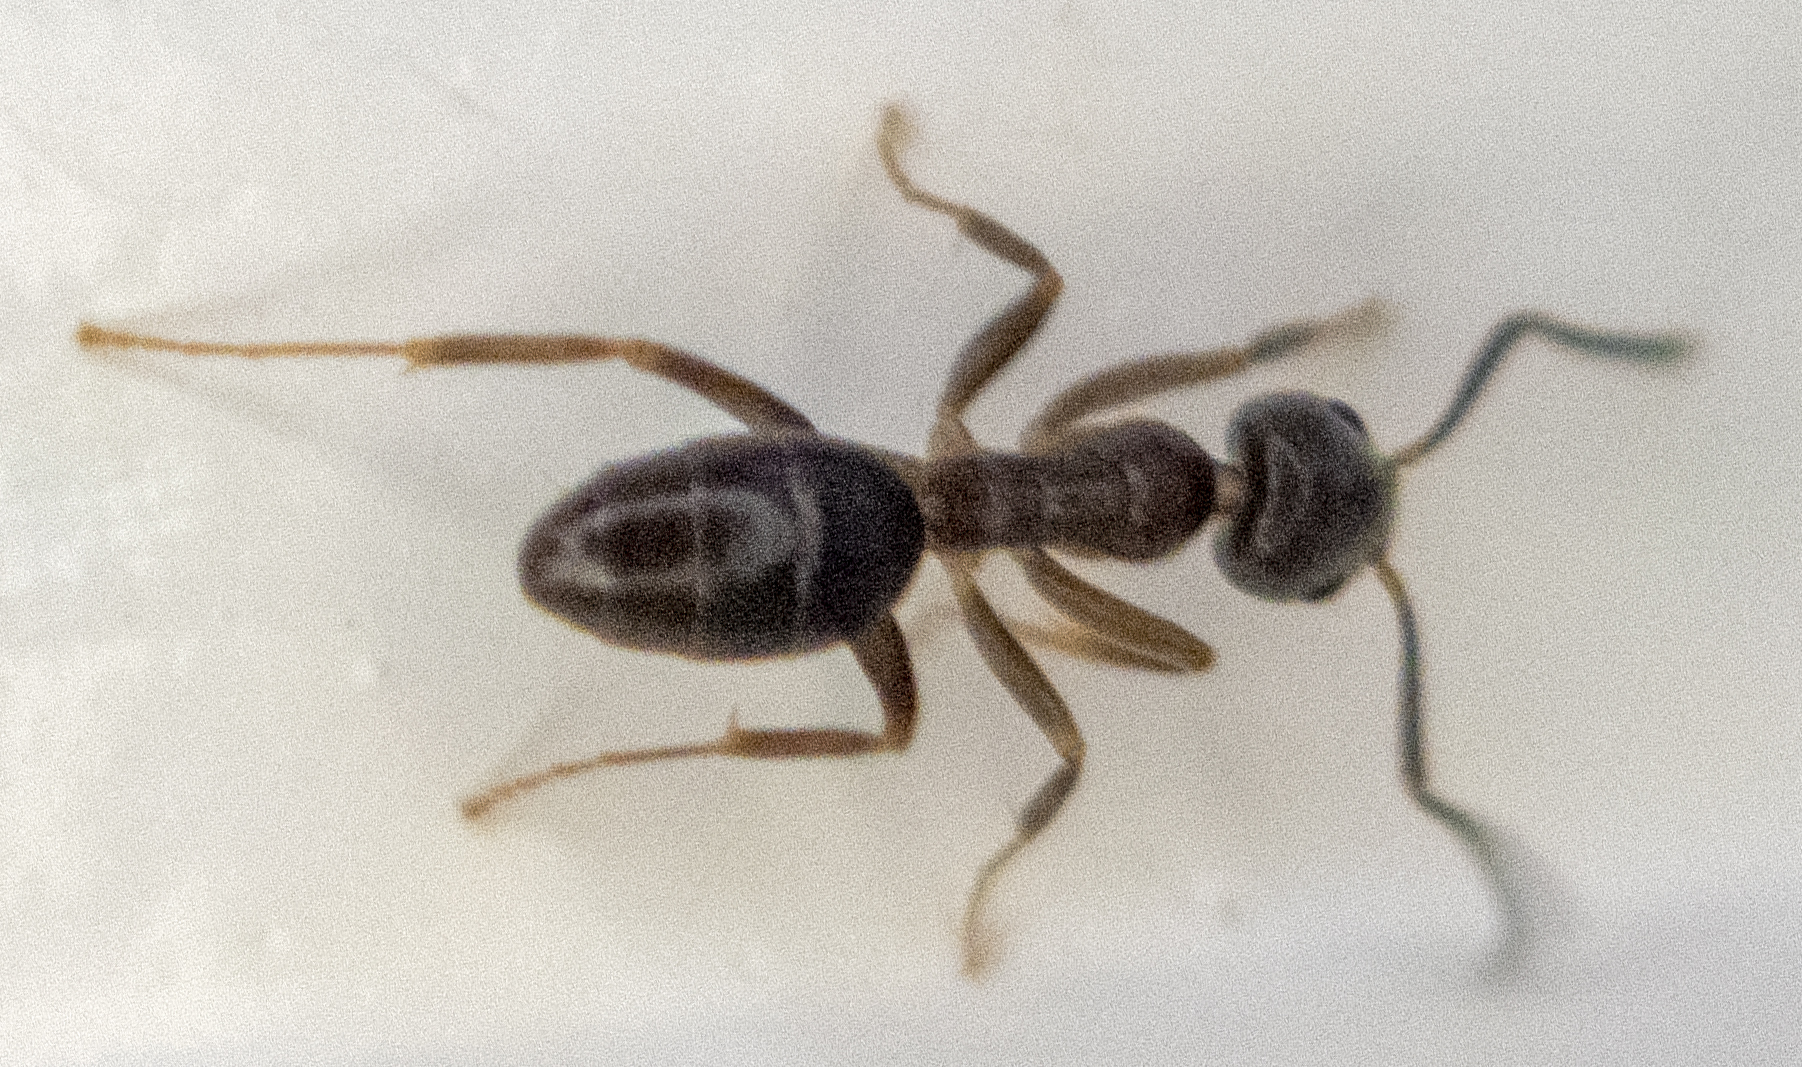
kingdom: Animalia
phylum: Arthropoda
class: Insecta
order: Hymenoptera
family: Formicidae
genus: Tapinoma
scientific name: Tapinoma sessile
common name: Odorous house ant
